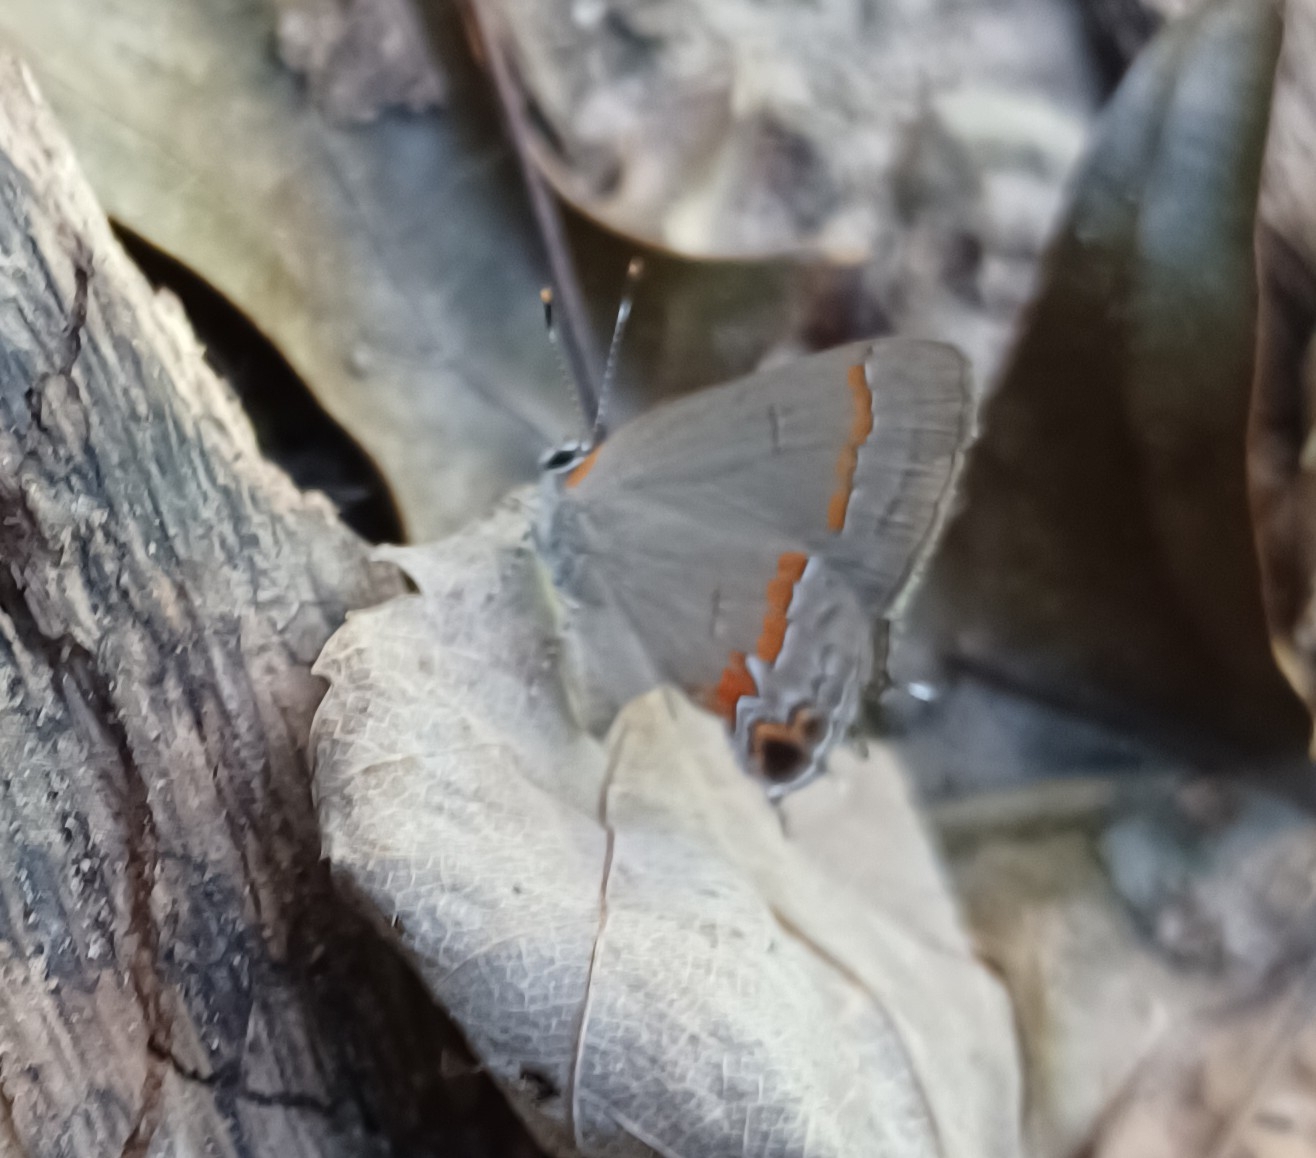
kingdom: Animalia
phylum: Arthropoda
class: Insecta
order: Lepidoptera
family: Lycaenidae
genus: Calycopis
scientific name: Calycopis cecrops
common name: Red-banded hairstreak
